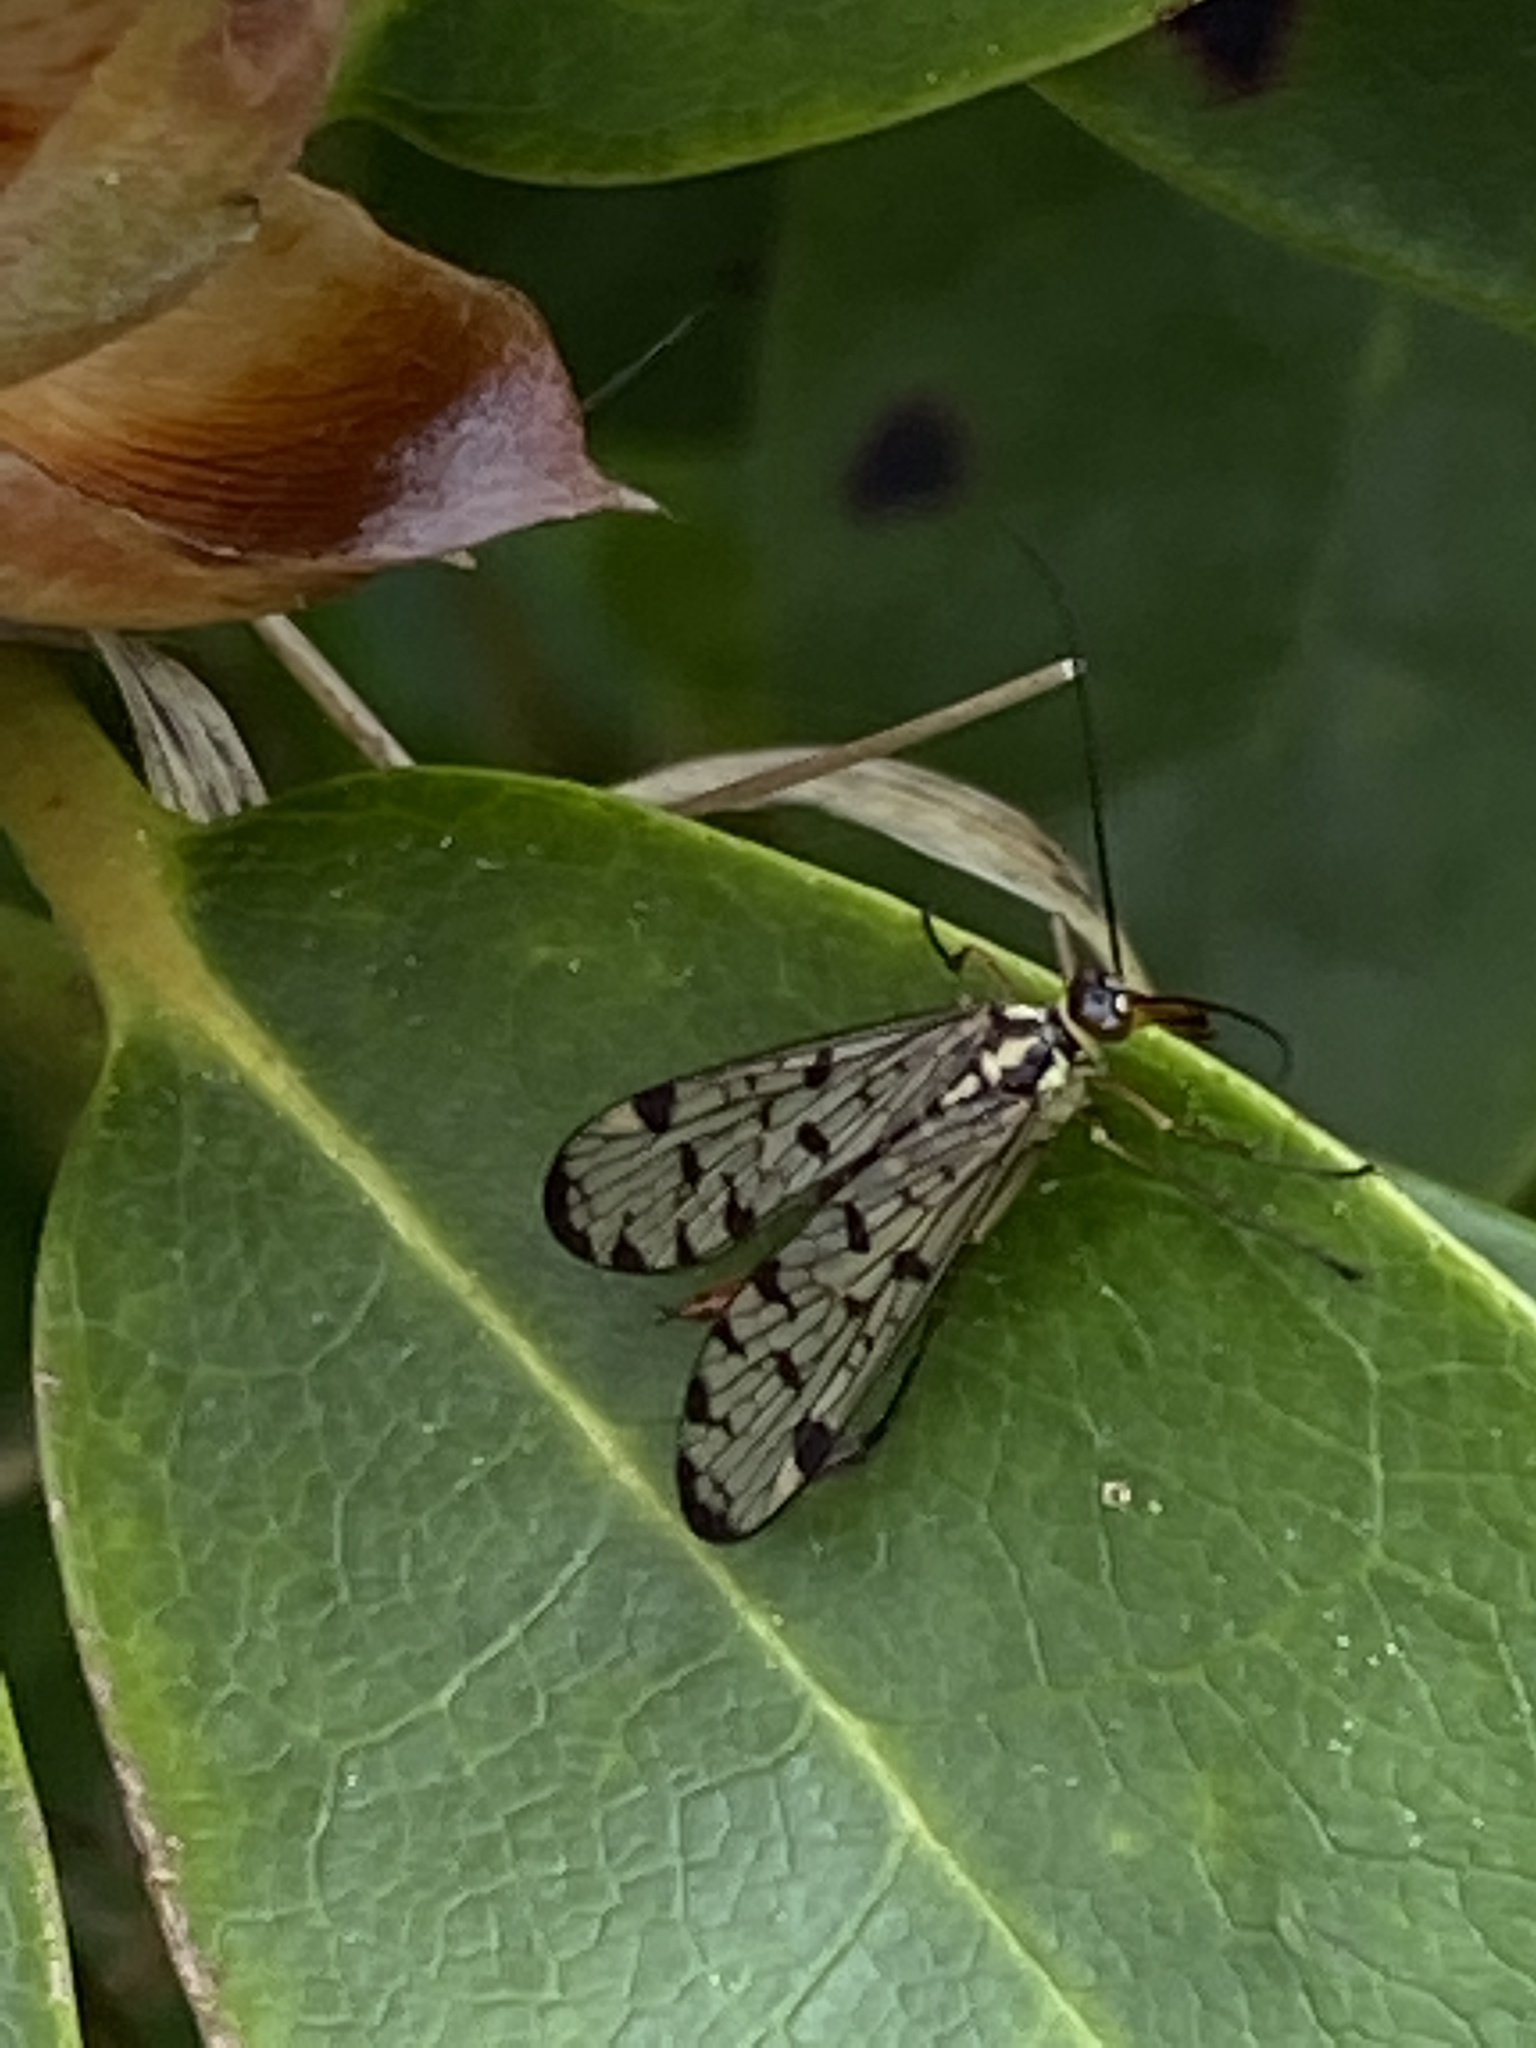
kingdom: Animalia
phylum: Arthropoda
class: Insecta
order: Mecoptera
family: Panorpidae
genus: Panorpa
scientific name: Panorpa germanica
